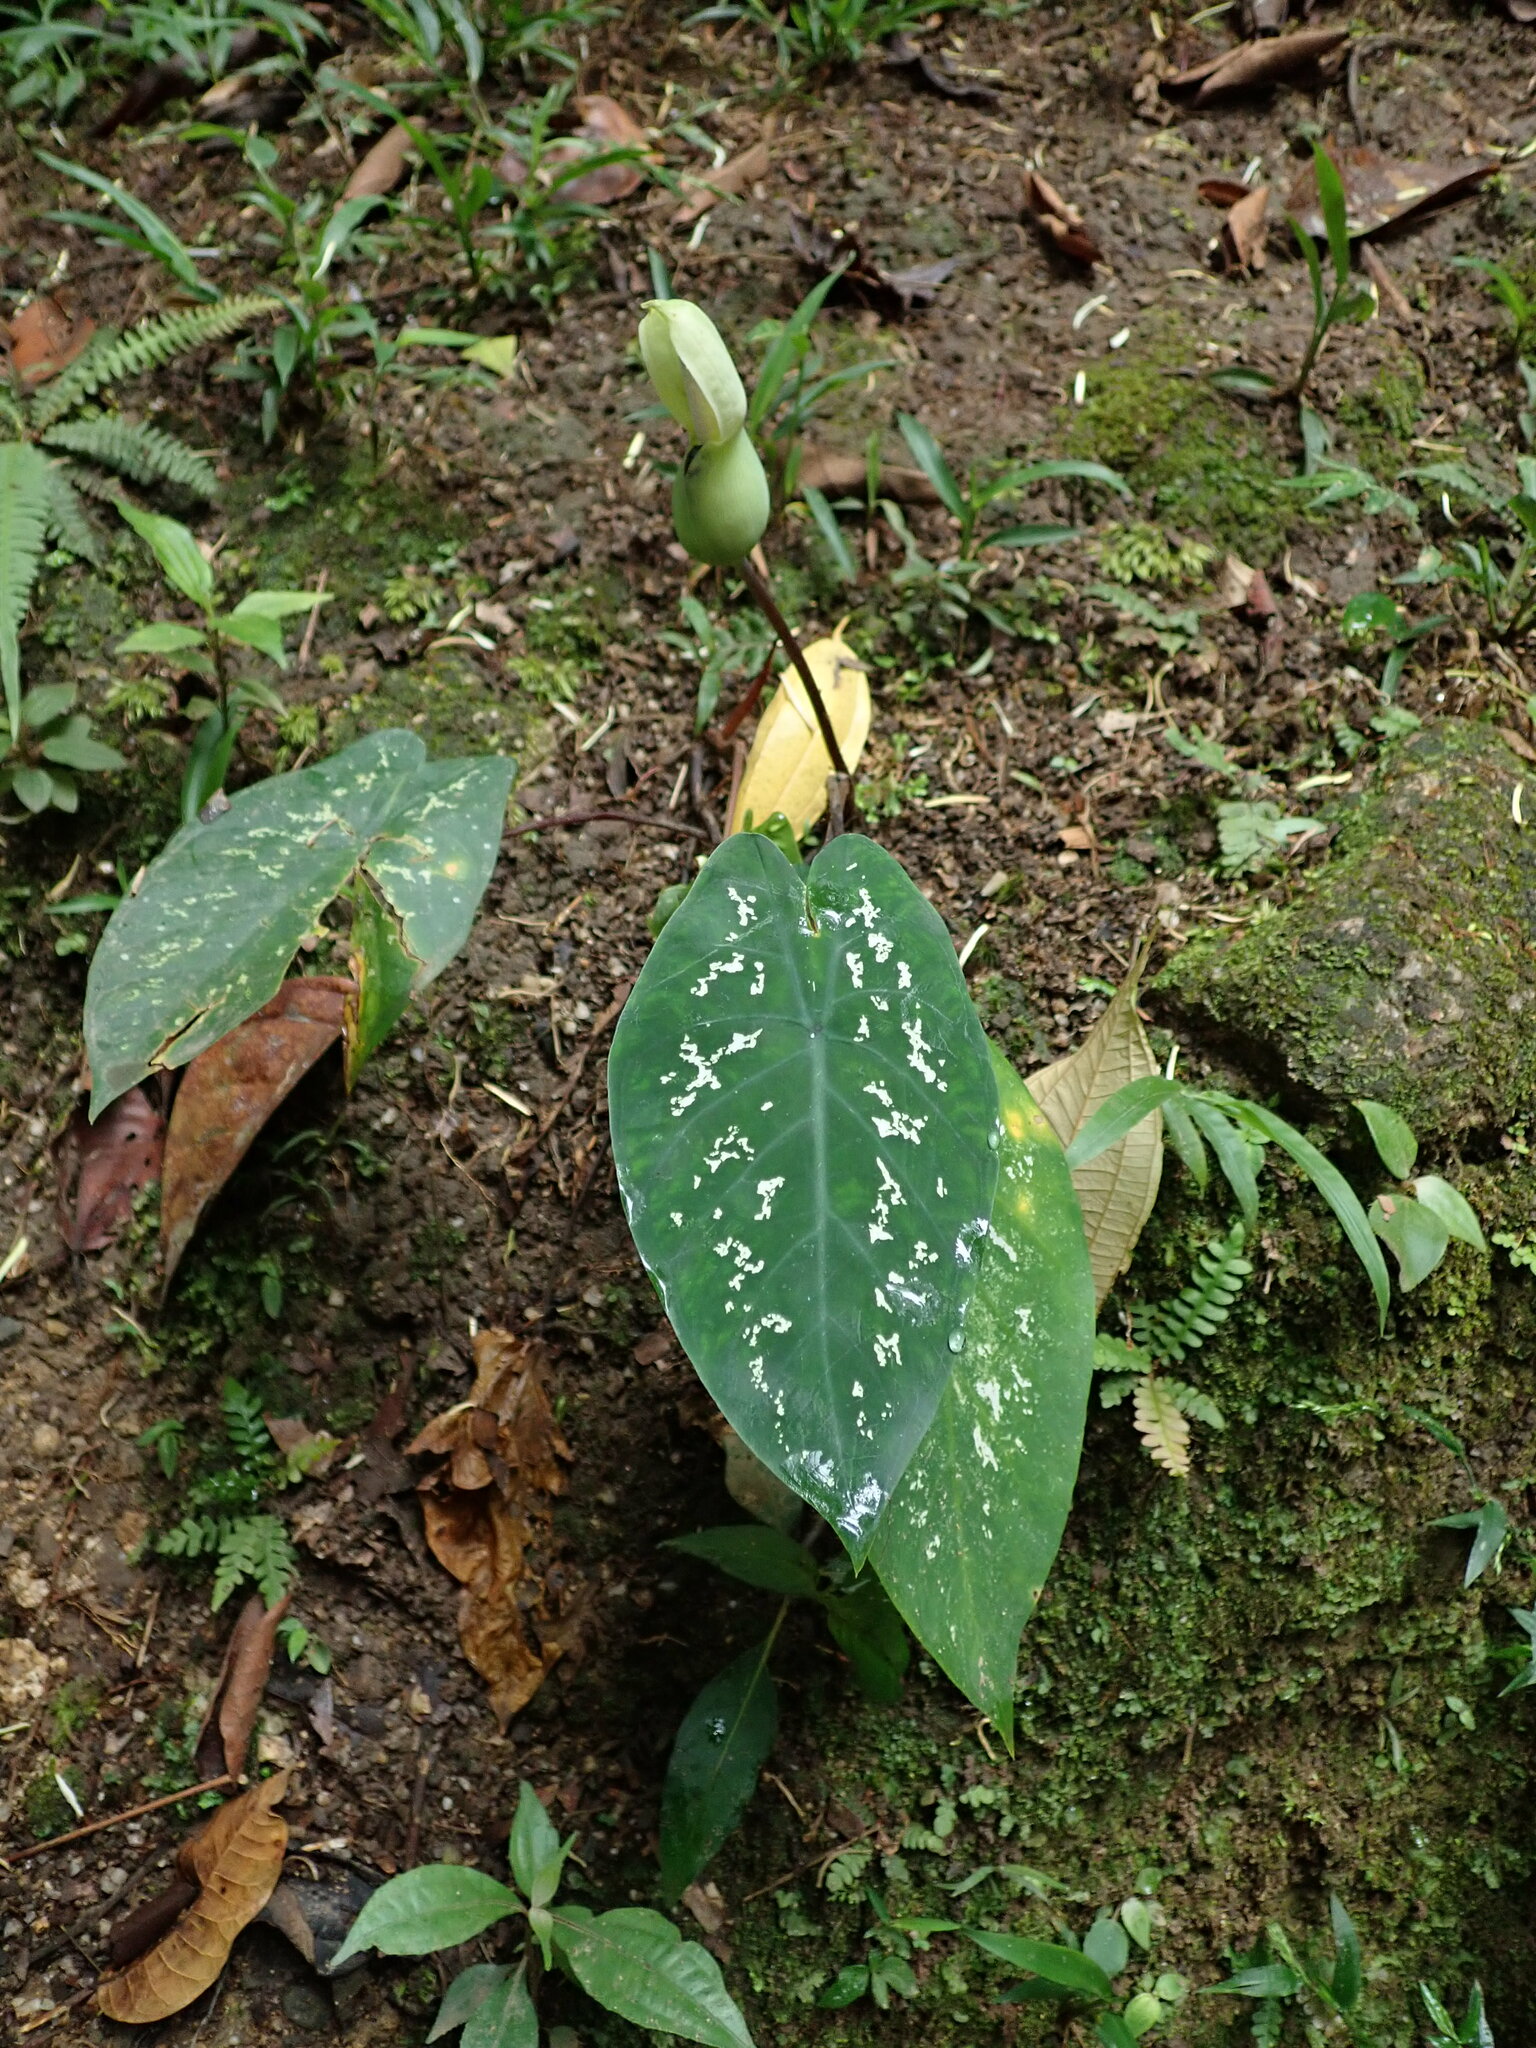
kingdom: Plantae
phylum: Tracheophyta
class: Liliopsida
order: Alismatales
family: Araceae
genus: Caladium
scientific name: Caladium steudnerifolium
